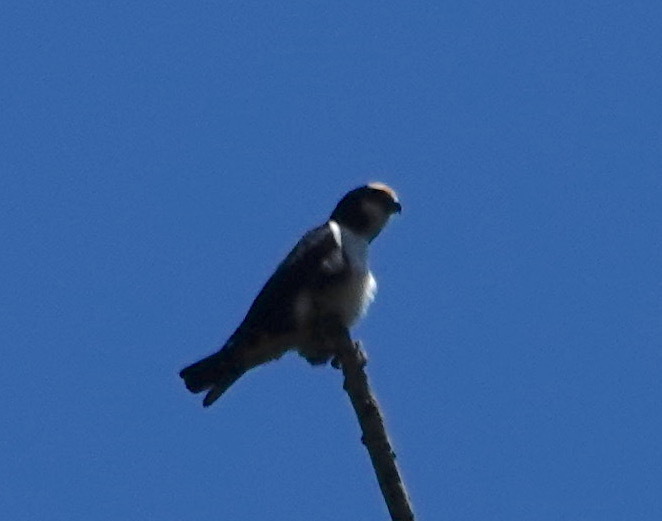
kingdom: Animalia
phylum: Chordata
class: Aves
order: Falconiformes
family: Falconidae
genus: Microhierax
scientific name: Microhierax latifrons
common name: White-fronted falconet
